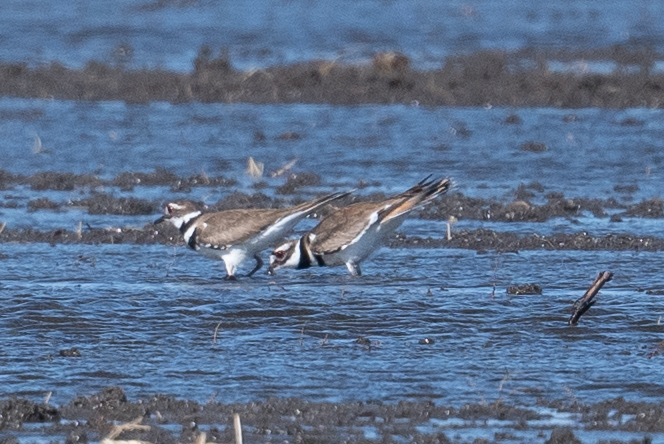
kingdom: Animalia
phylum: Chordata
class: Aves
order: Charadriiformes
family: Charadriidae
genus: Charadrius
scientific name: Charadrius vociferus
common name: Killdeer
